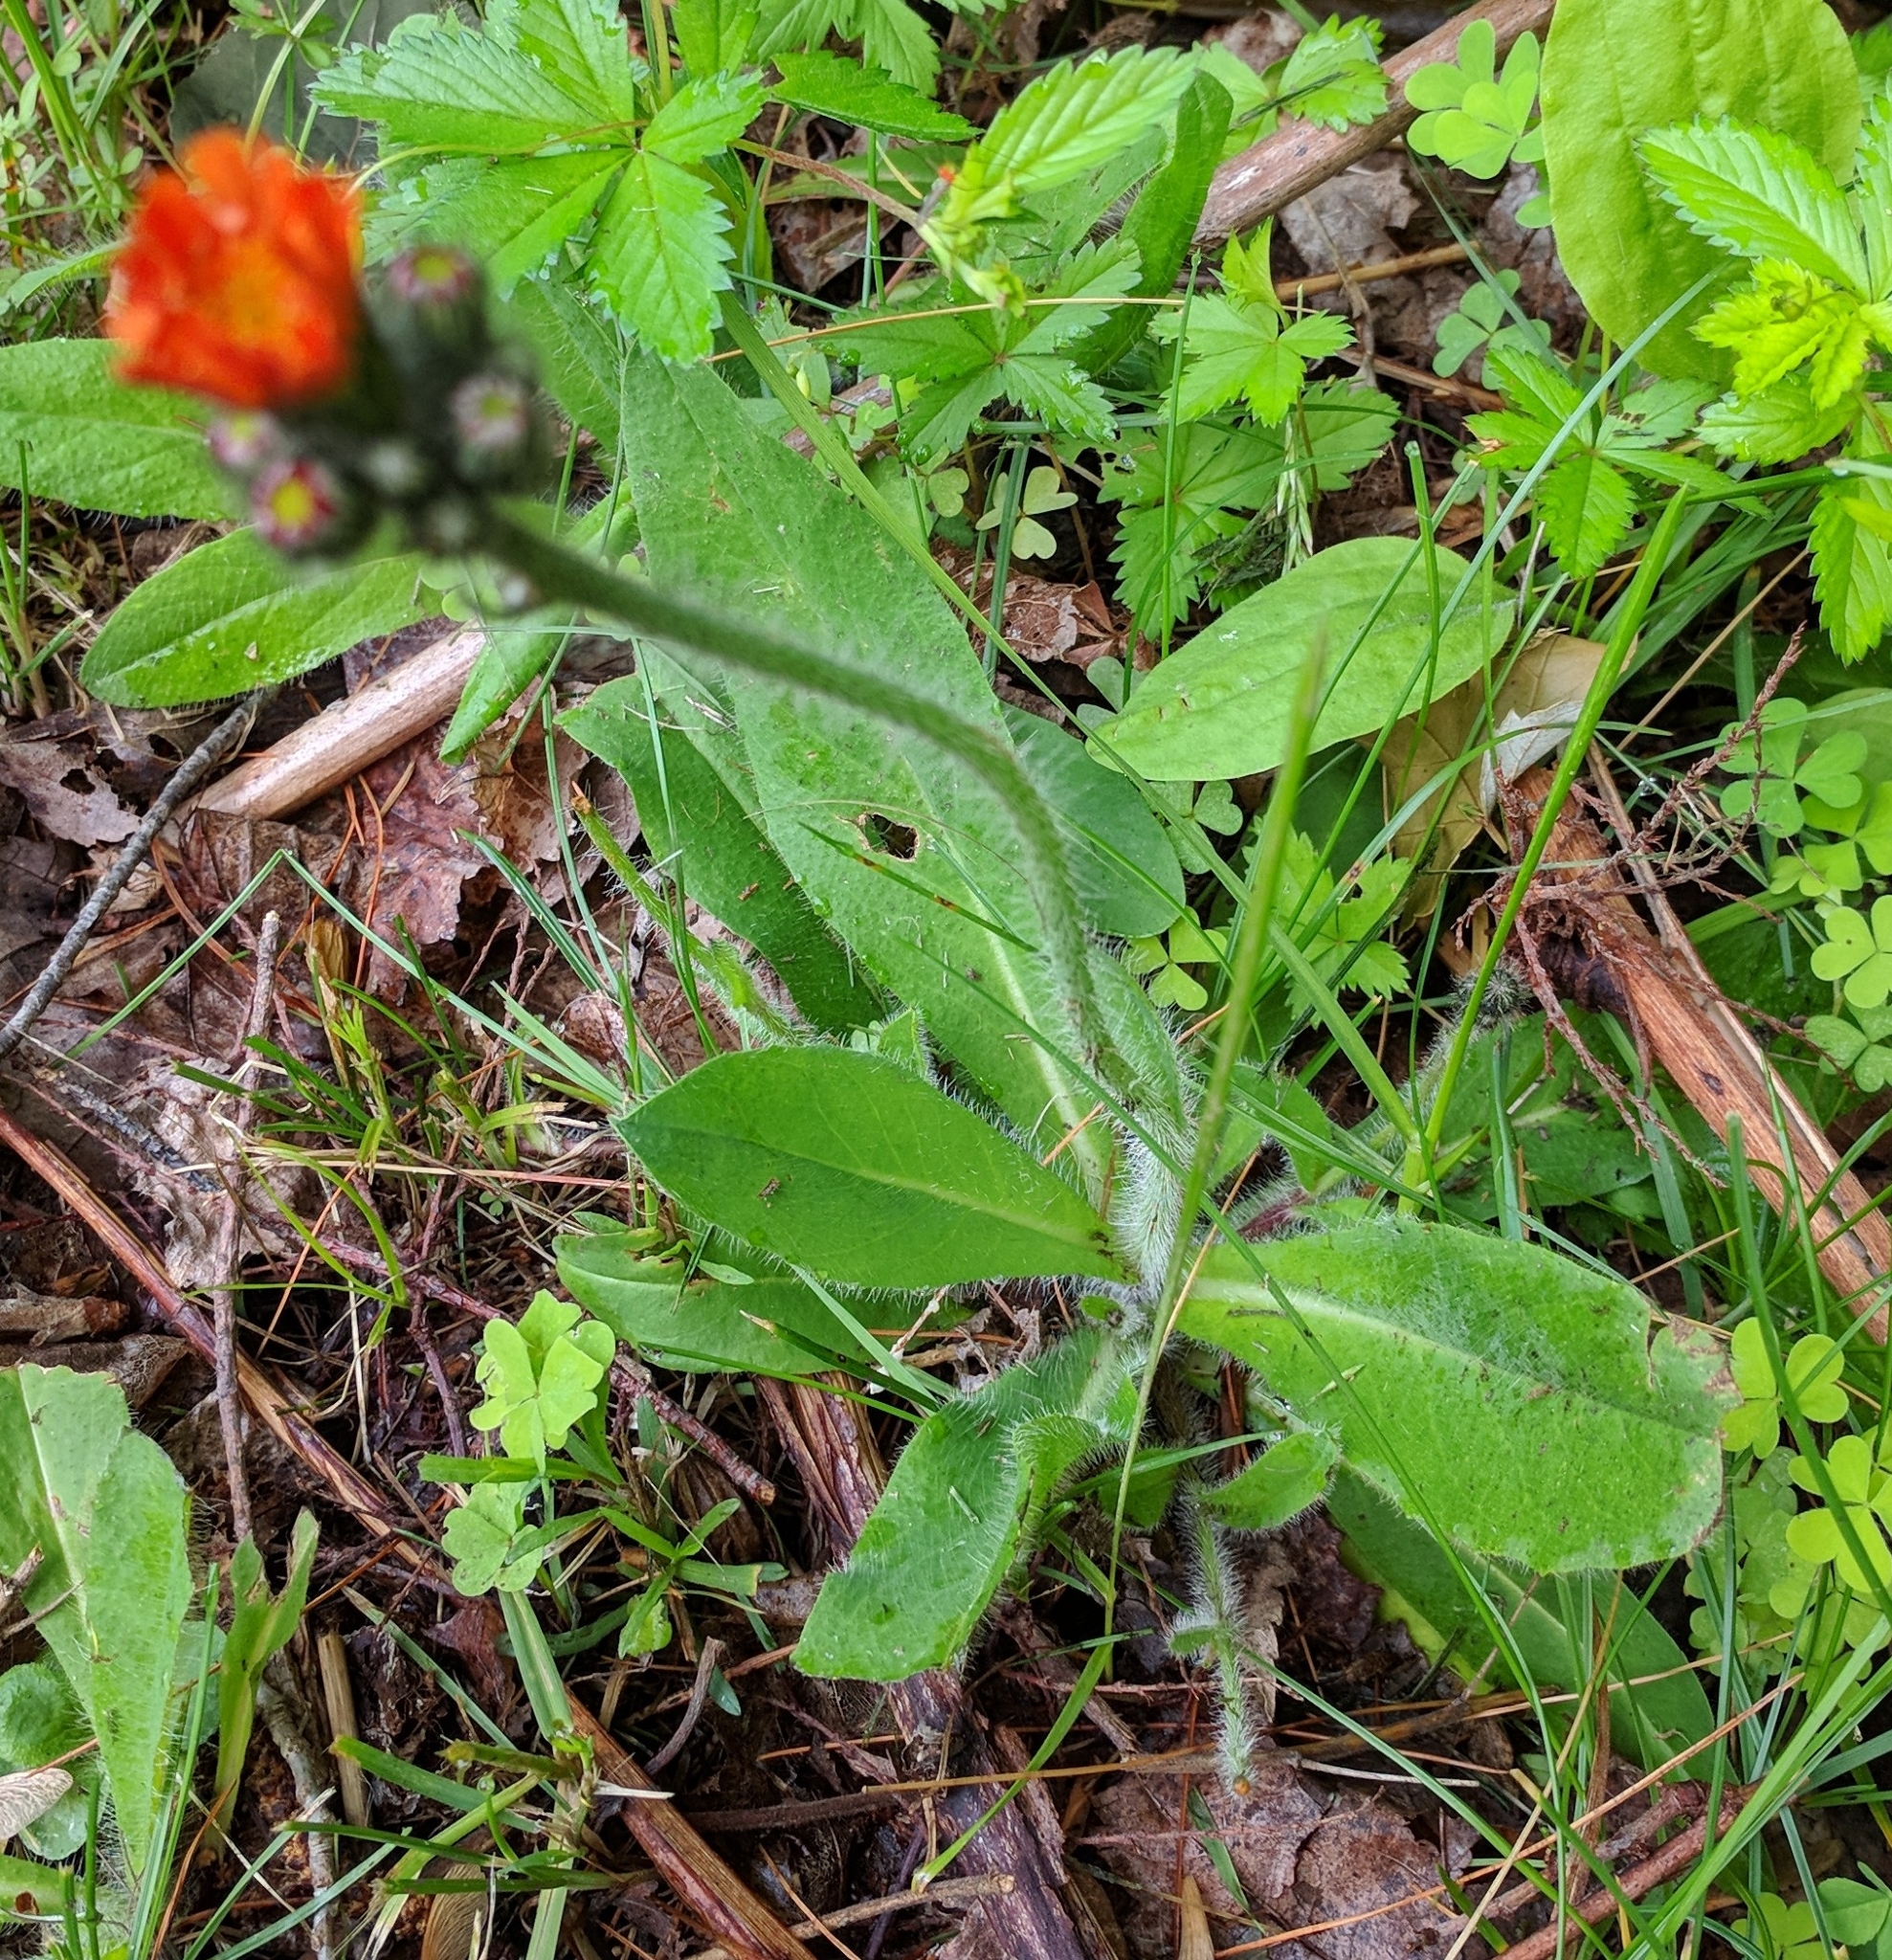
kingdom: Plantae
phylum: Tracheophyta
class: Magnoliopsida
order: Asterales
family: Asteraceae
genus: Pilosella
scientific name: Pilosella aurantiaca
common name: Fox-and-cubs
